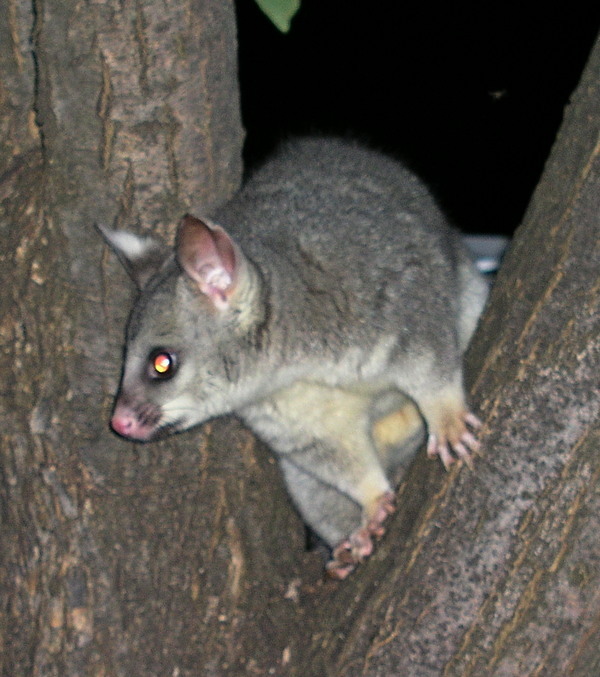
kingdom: Animalia
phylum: Chordata
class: Mammalia
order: Diprotodontia
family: Phalangeridae
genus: Trichosurus
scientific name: Trichosurus vulpecula
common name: Common brushtail
